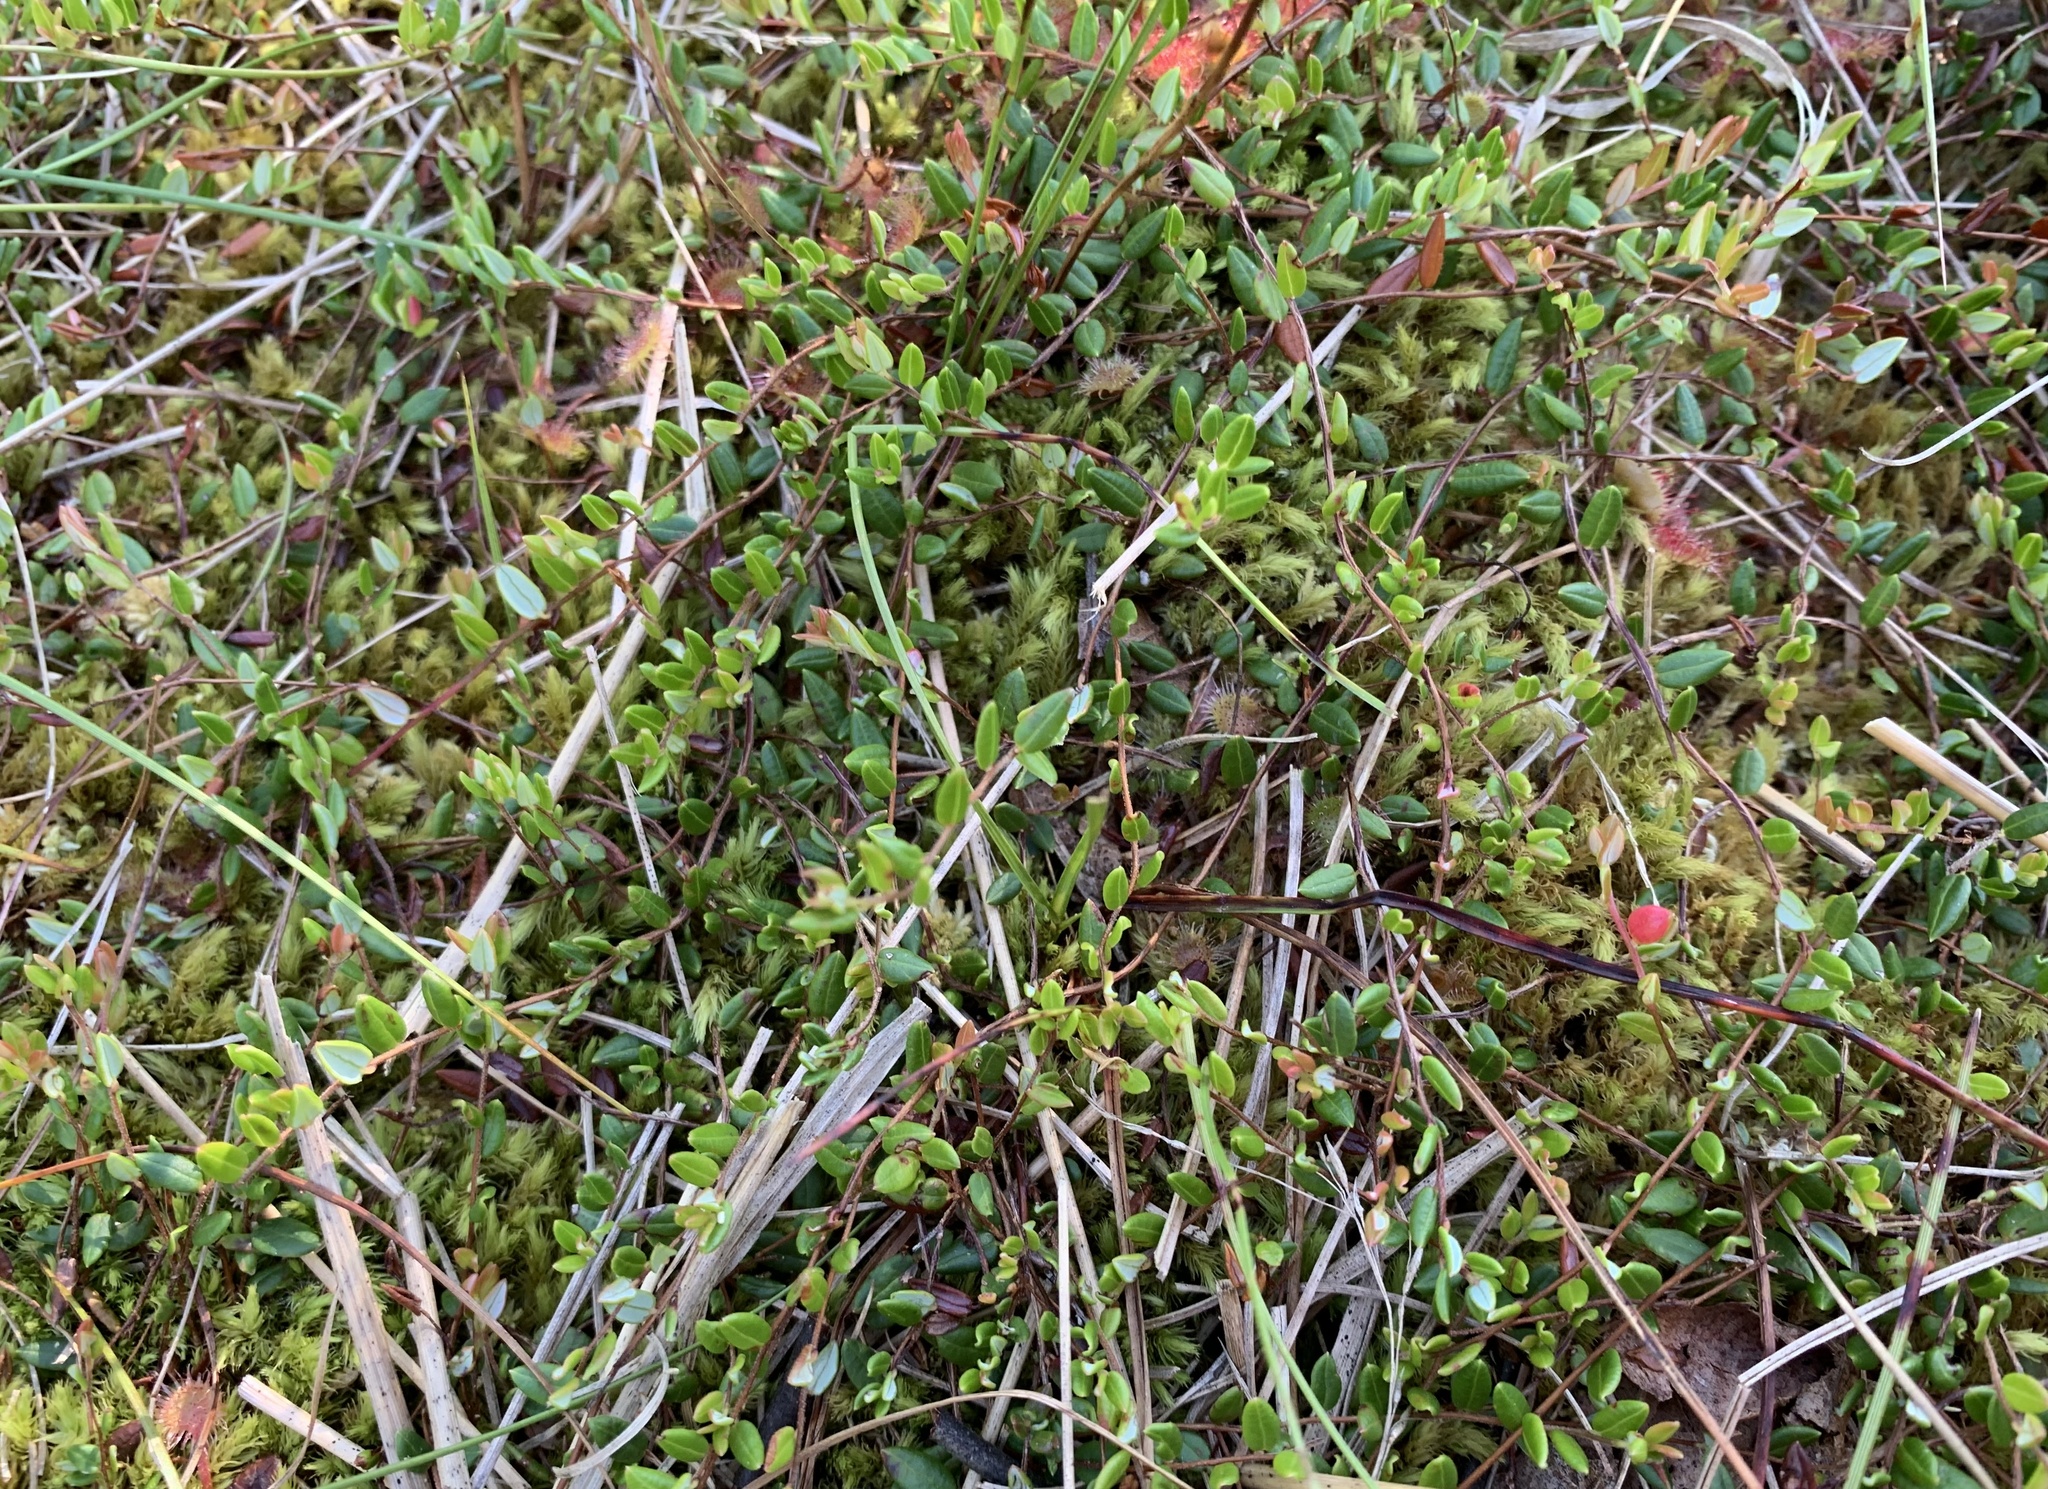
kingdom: Plantae
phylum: Tracheophyta
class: Magnoliopsida
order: Ericales
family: Ericaceae
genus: Vaccinium
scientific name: Vaccinium oxycoccos
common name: Cranberry
